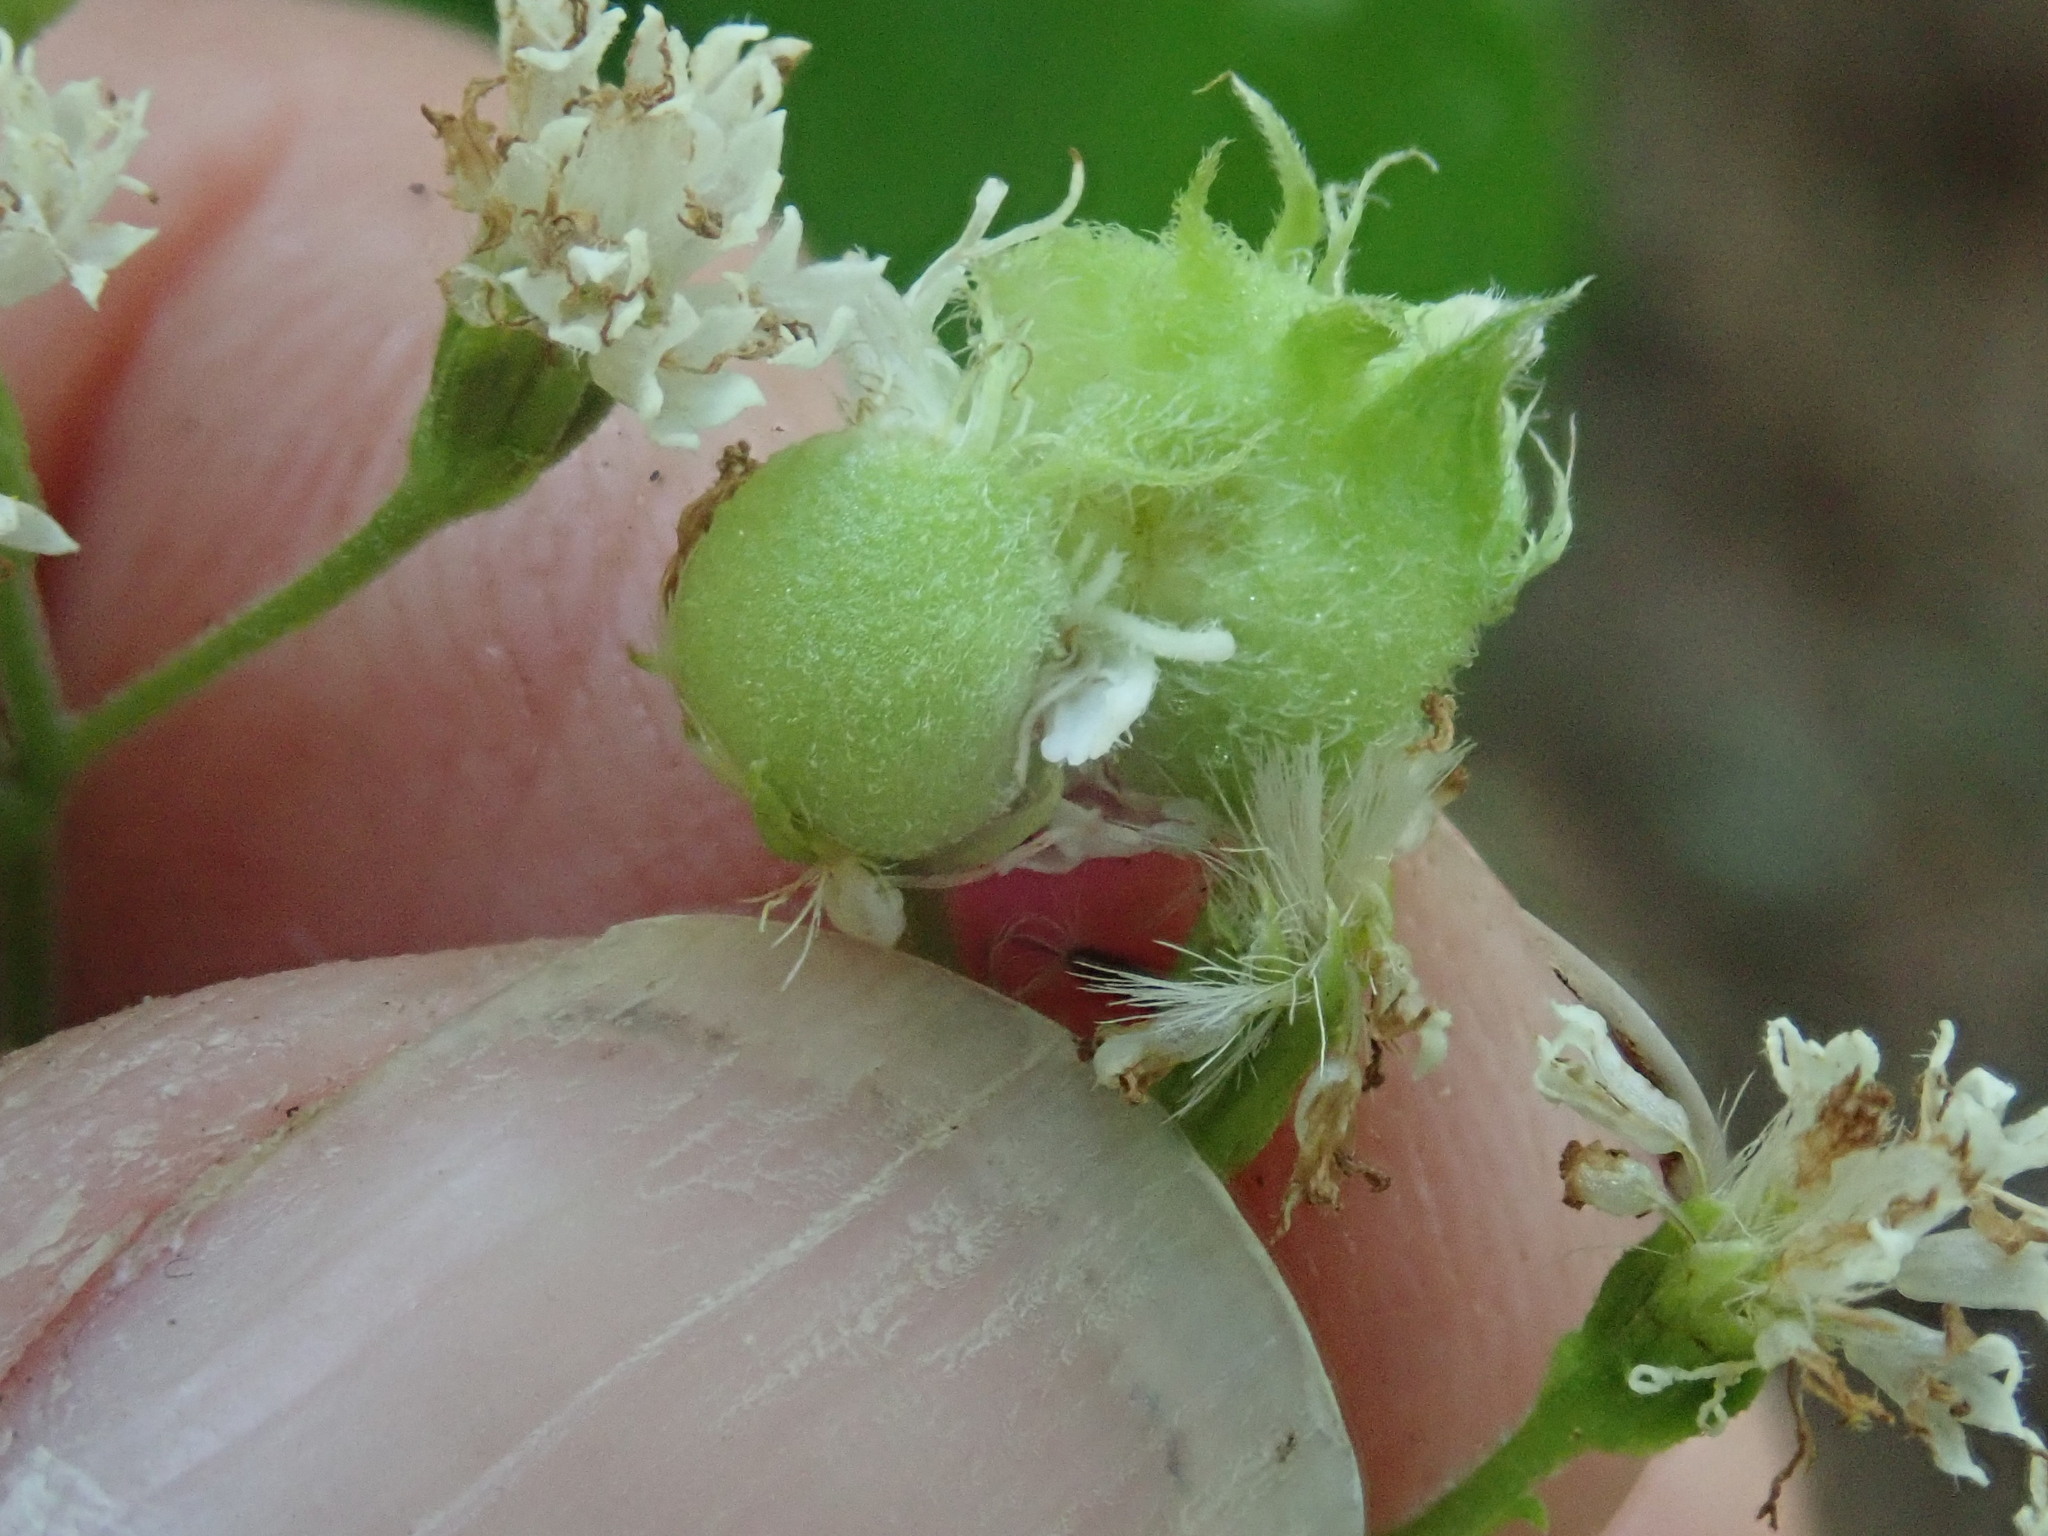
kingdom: Animalia
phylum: Arthropoda
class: Insecta
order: Diptera
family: Cecidomyiidae
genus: Schizomyia
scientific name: Schizomyia eupatoriflorae
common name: Boneset flower gall midge
